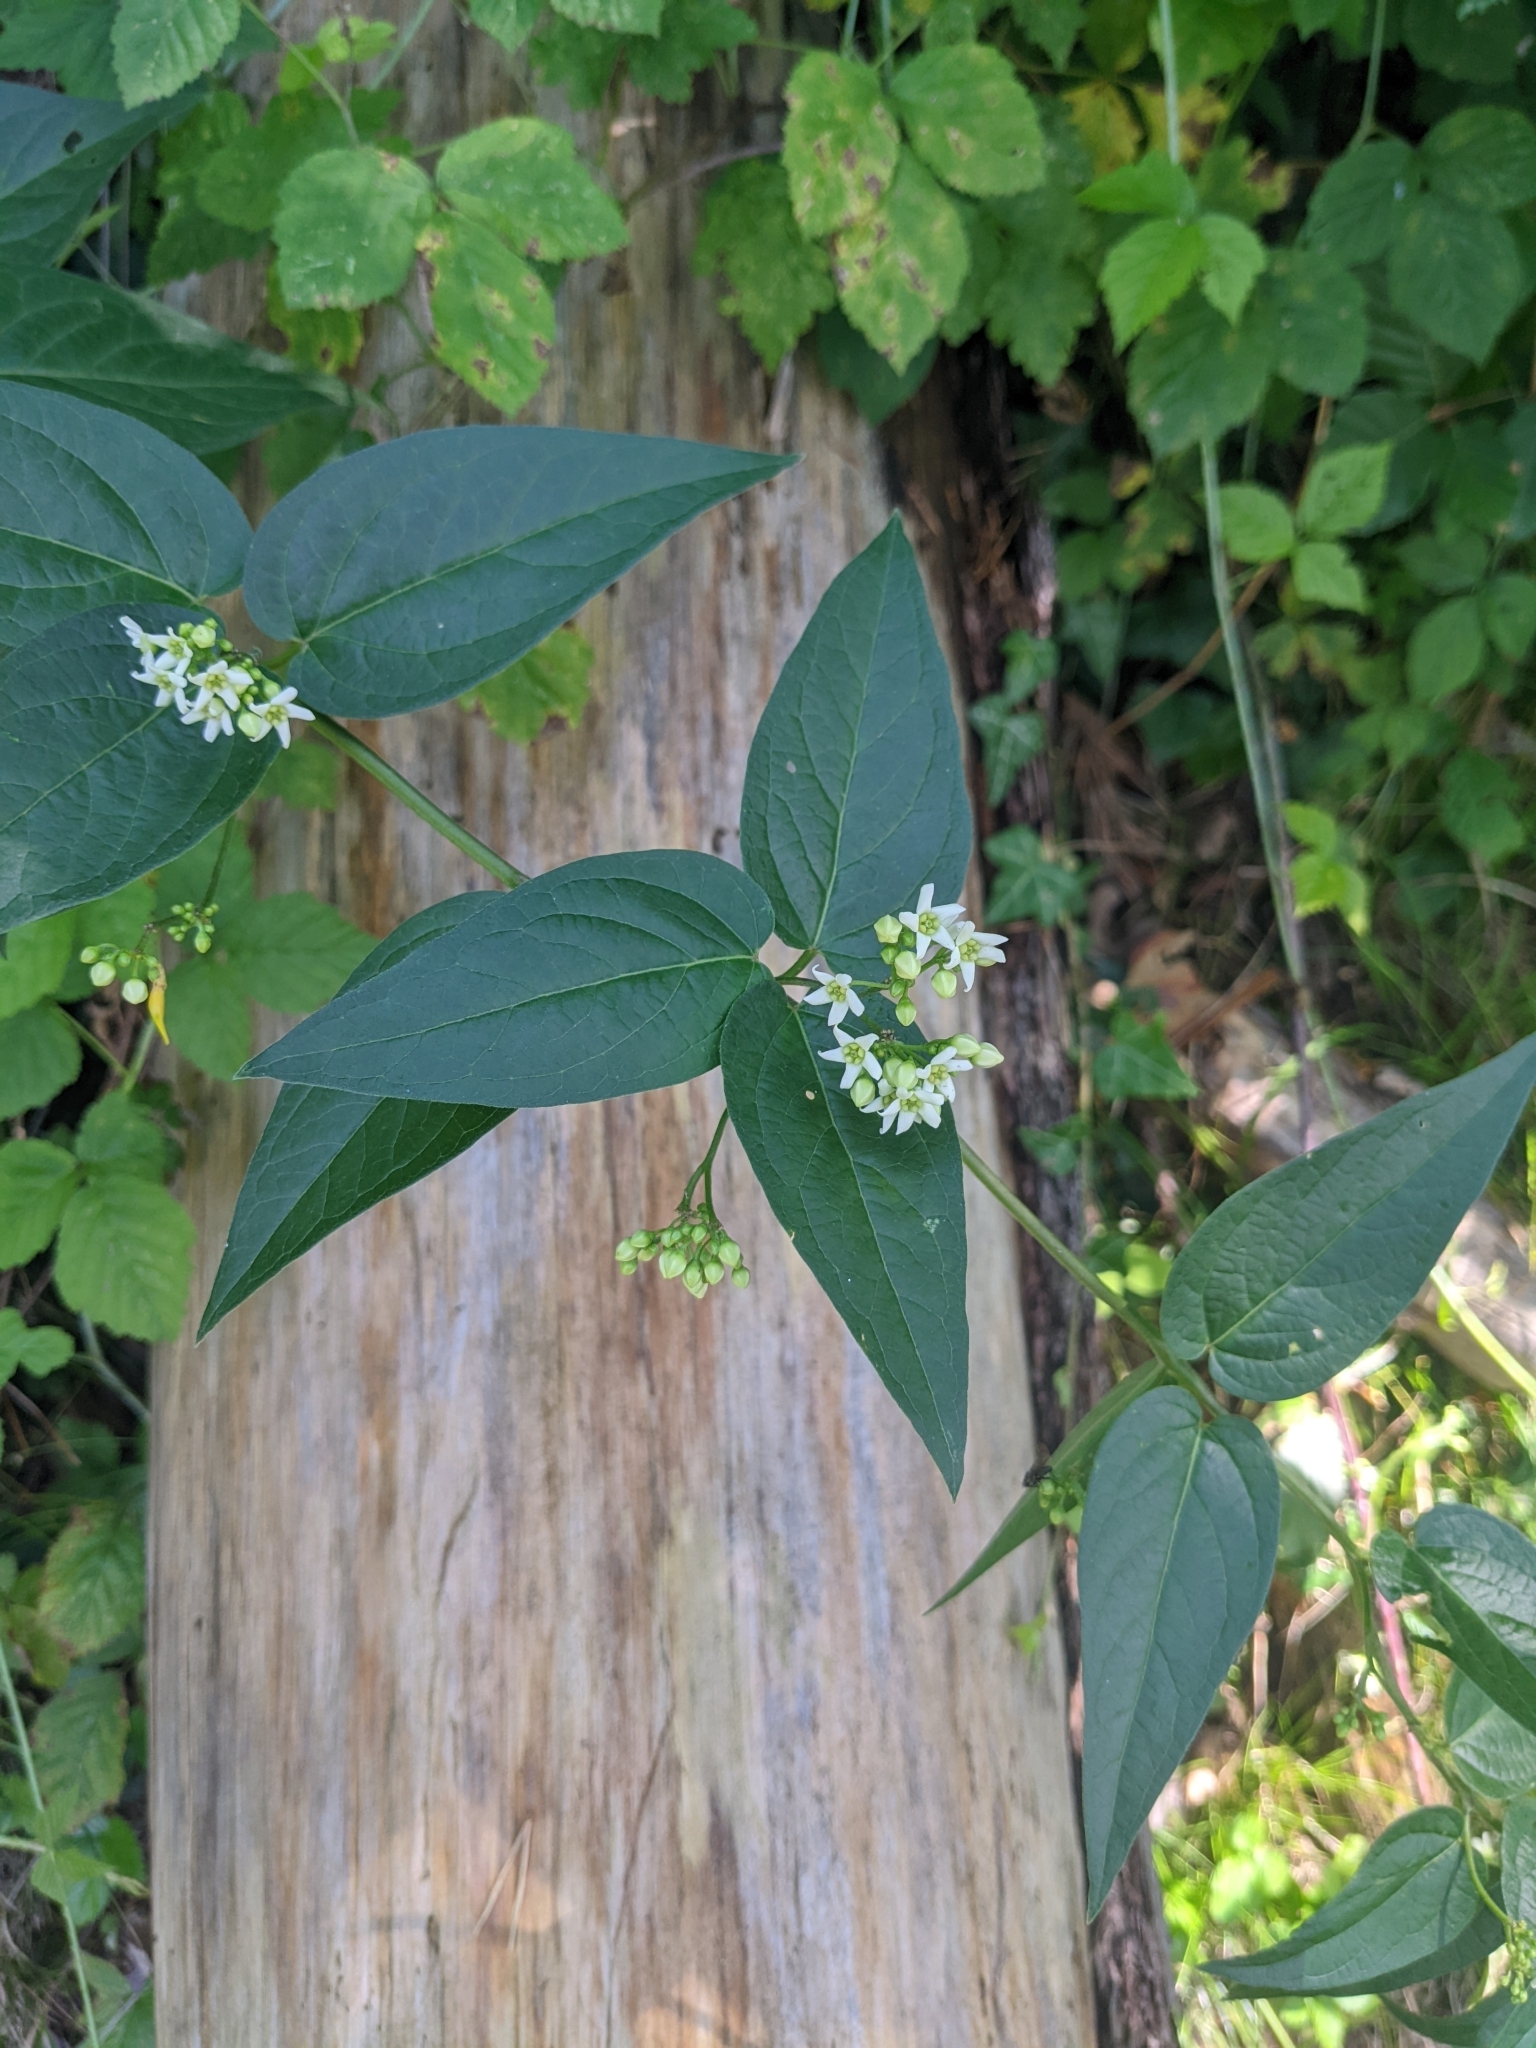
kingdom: Plantae
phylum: Tracheophyta
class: Magnoliopsida
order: Gentianales
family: Apocynaceae
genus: Vincetoxicum
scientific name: Vincetoxicum hirundinaria
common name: White swallowwort
